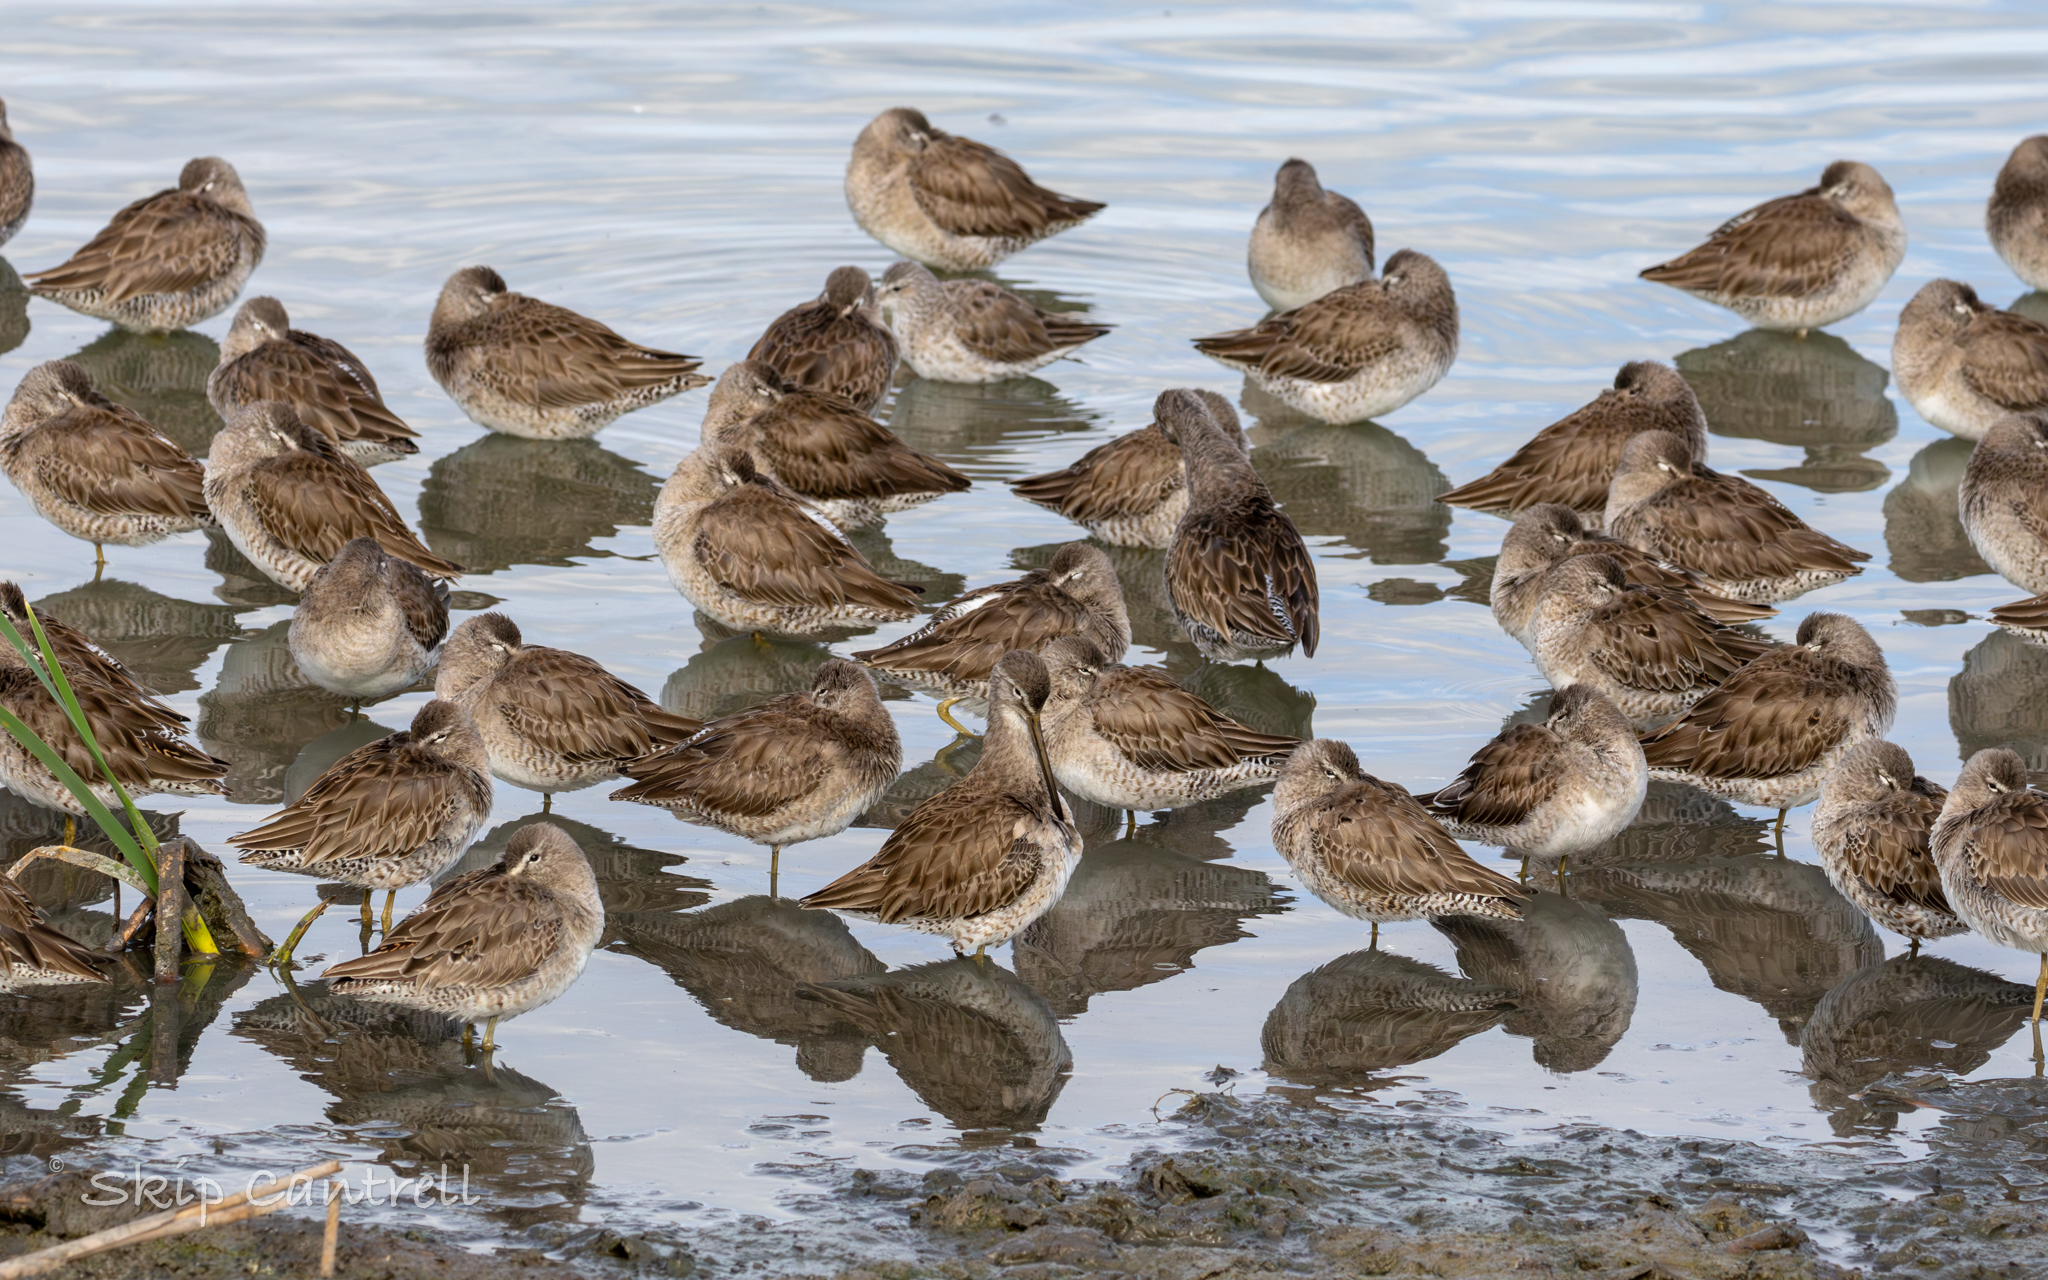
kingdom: Animalia
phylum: Chordata
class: Aves
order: Charadriiformes
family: Scolopacidae
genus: Limnodromus
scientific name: Limnodromus scolopaceus
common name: Long-billed dowitcher
